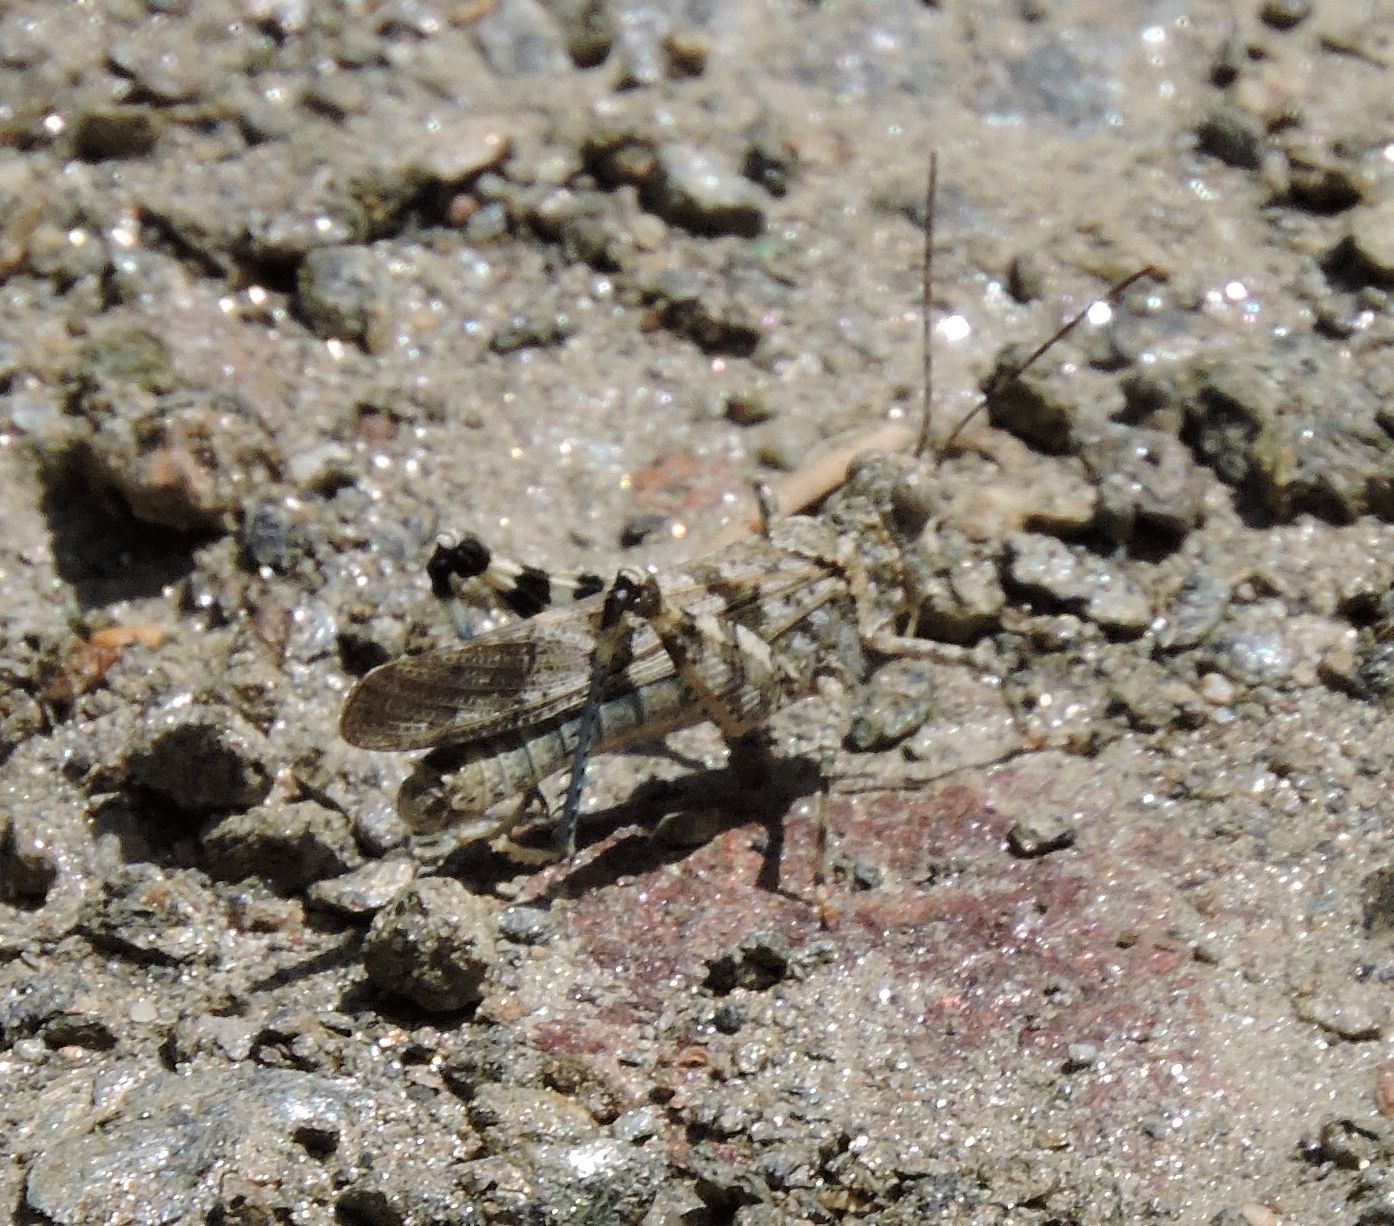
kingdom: Animalia
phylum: Arthropoda
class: Insecta
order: Orthoptera
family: Acrididae
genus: Trimerotropis
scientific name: Trimerotropis fontana
